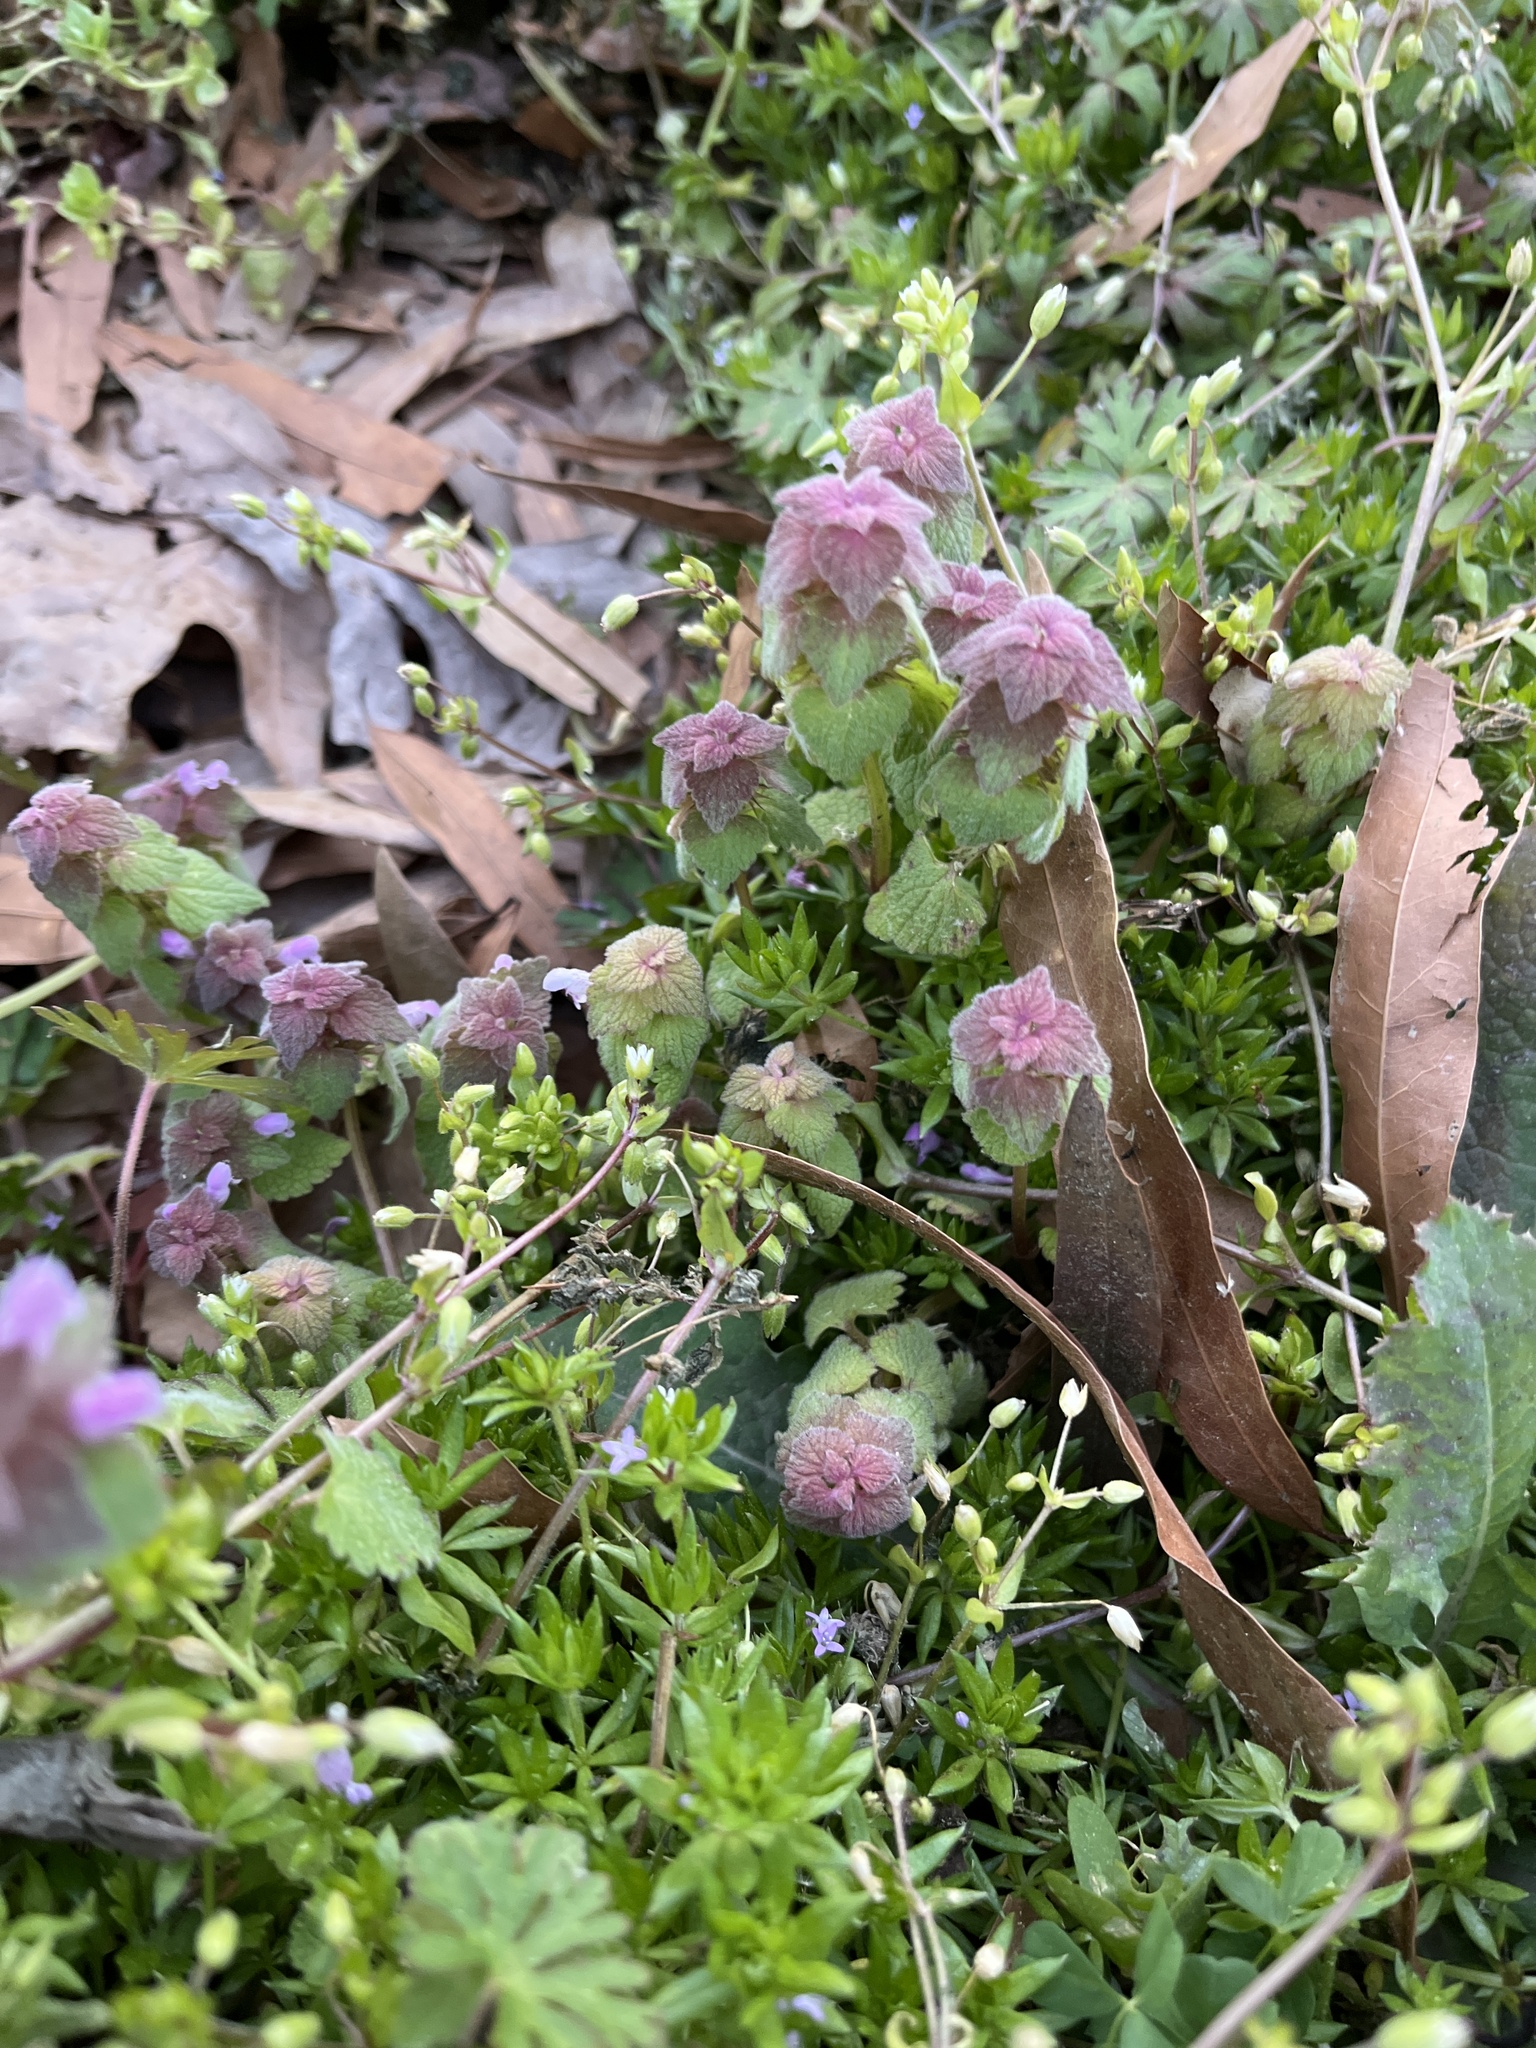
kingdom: Plantae
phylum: Tracheophyta
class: Magnoliopsida
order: Lamiales
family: Lamiaceae
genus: Lamium
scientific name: Lamium purpureum
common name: Red dead-nettle
